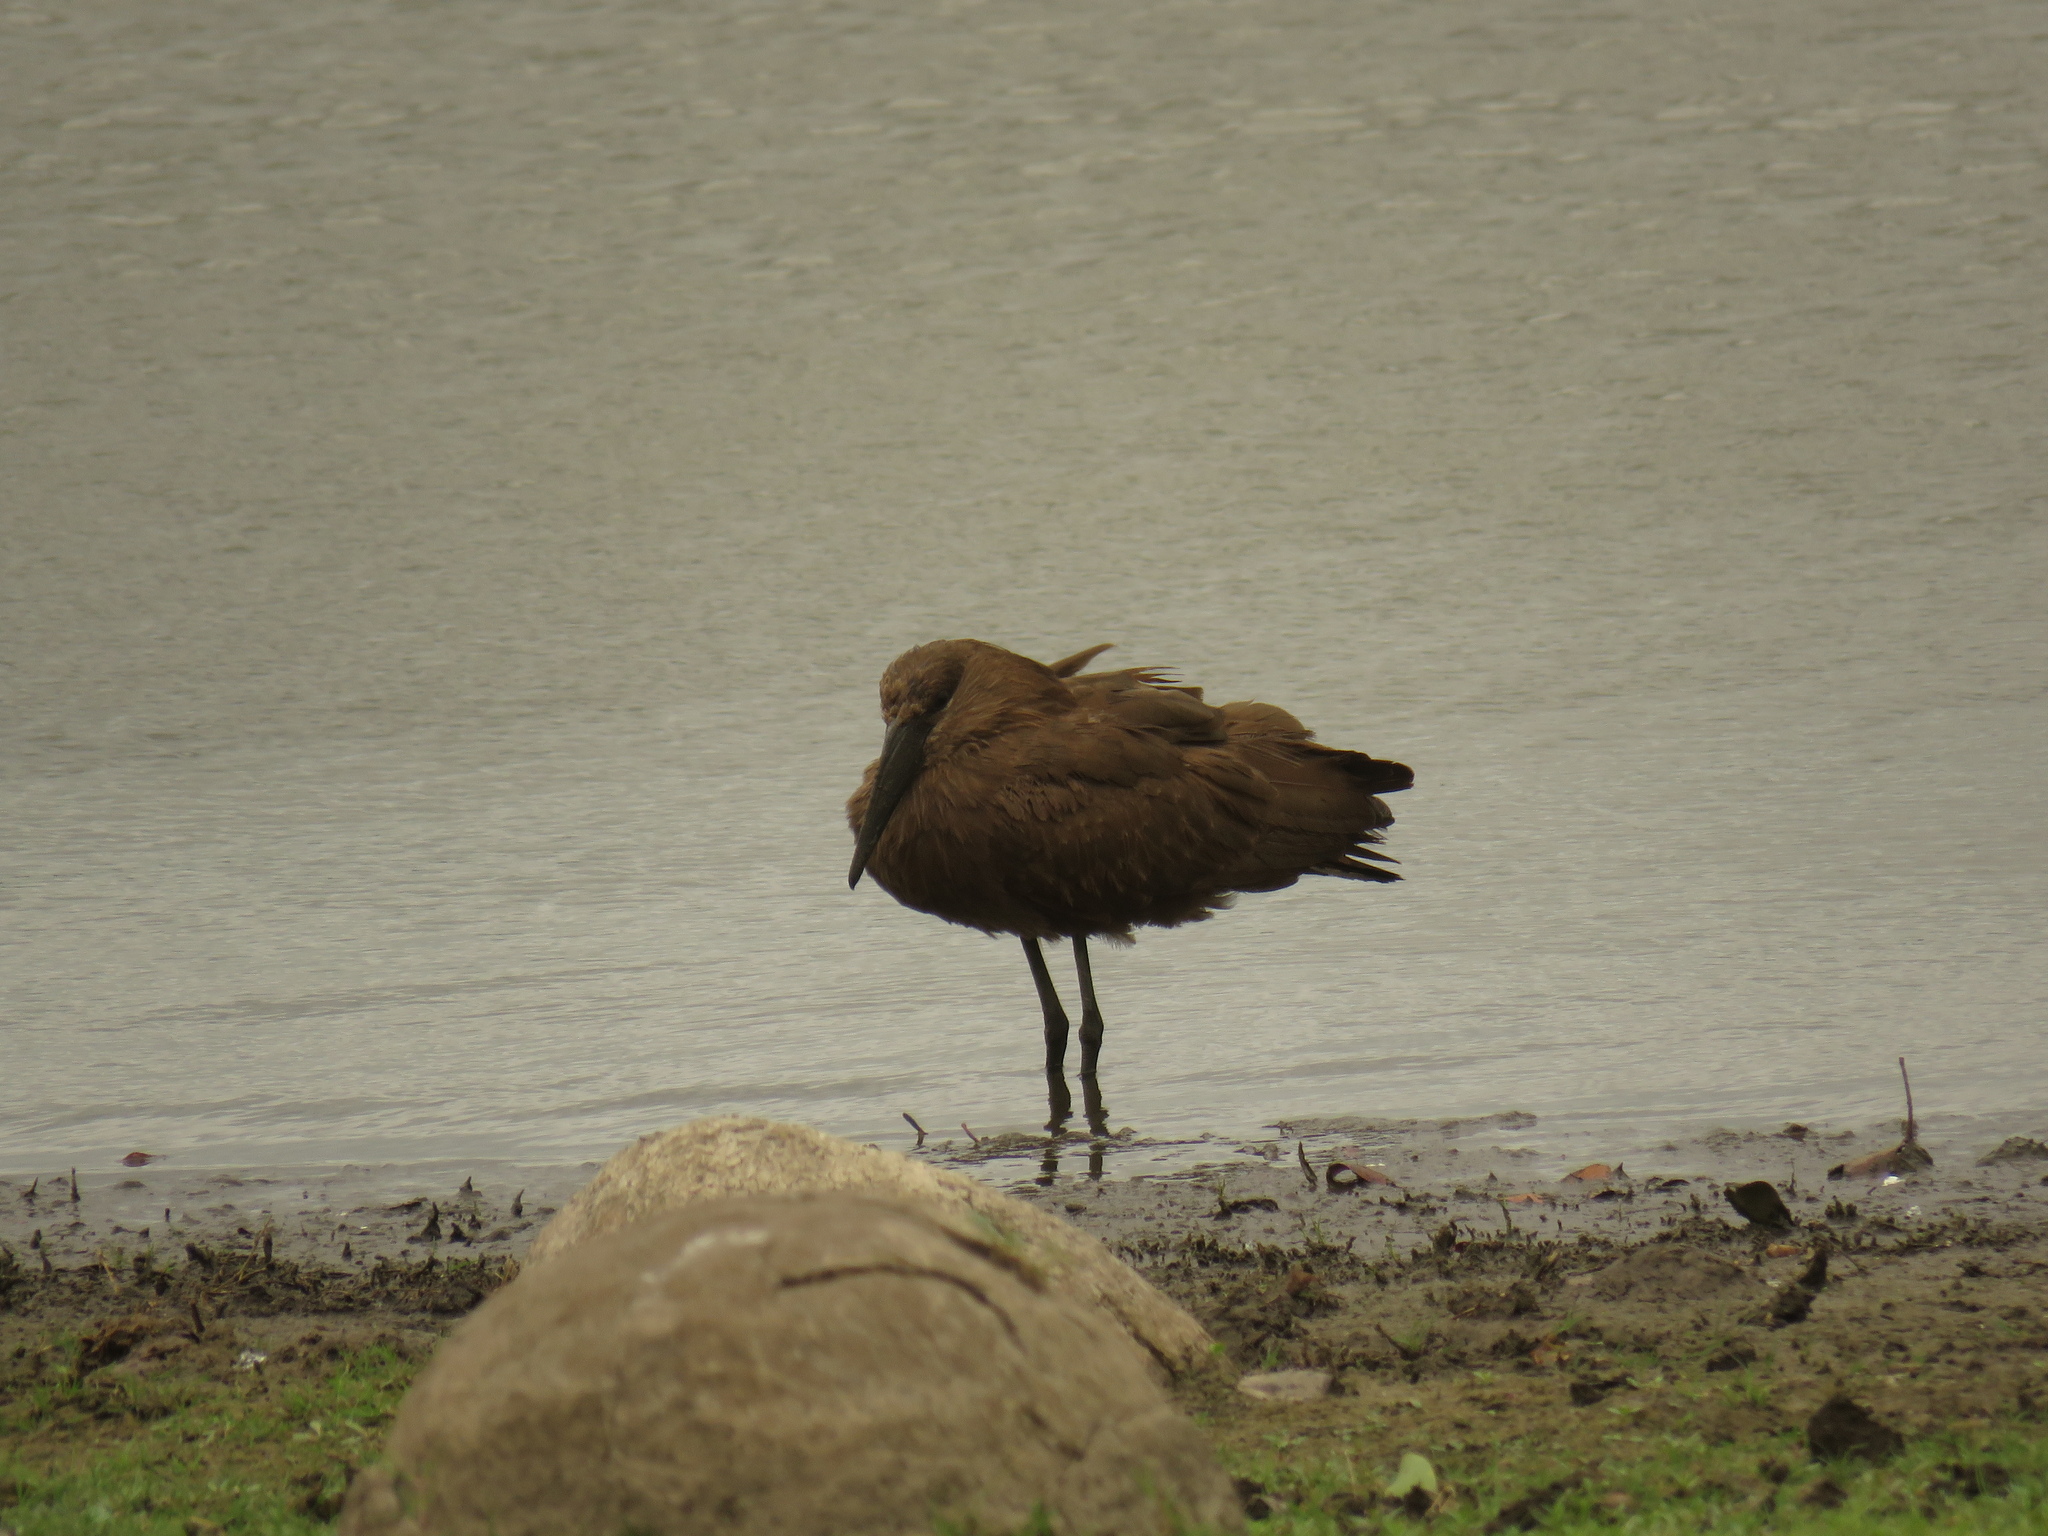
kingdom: Animalia
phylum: Chordata
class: Aves
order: Pelecaniformes
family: Scopidae
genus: Scopus
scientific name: Scopus umbretta
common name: Hamerkop
